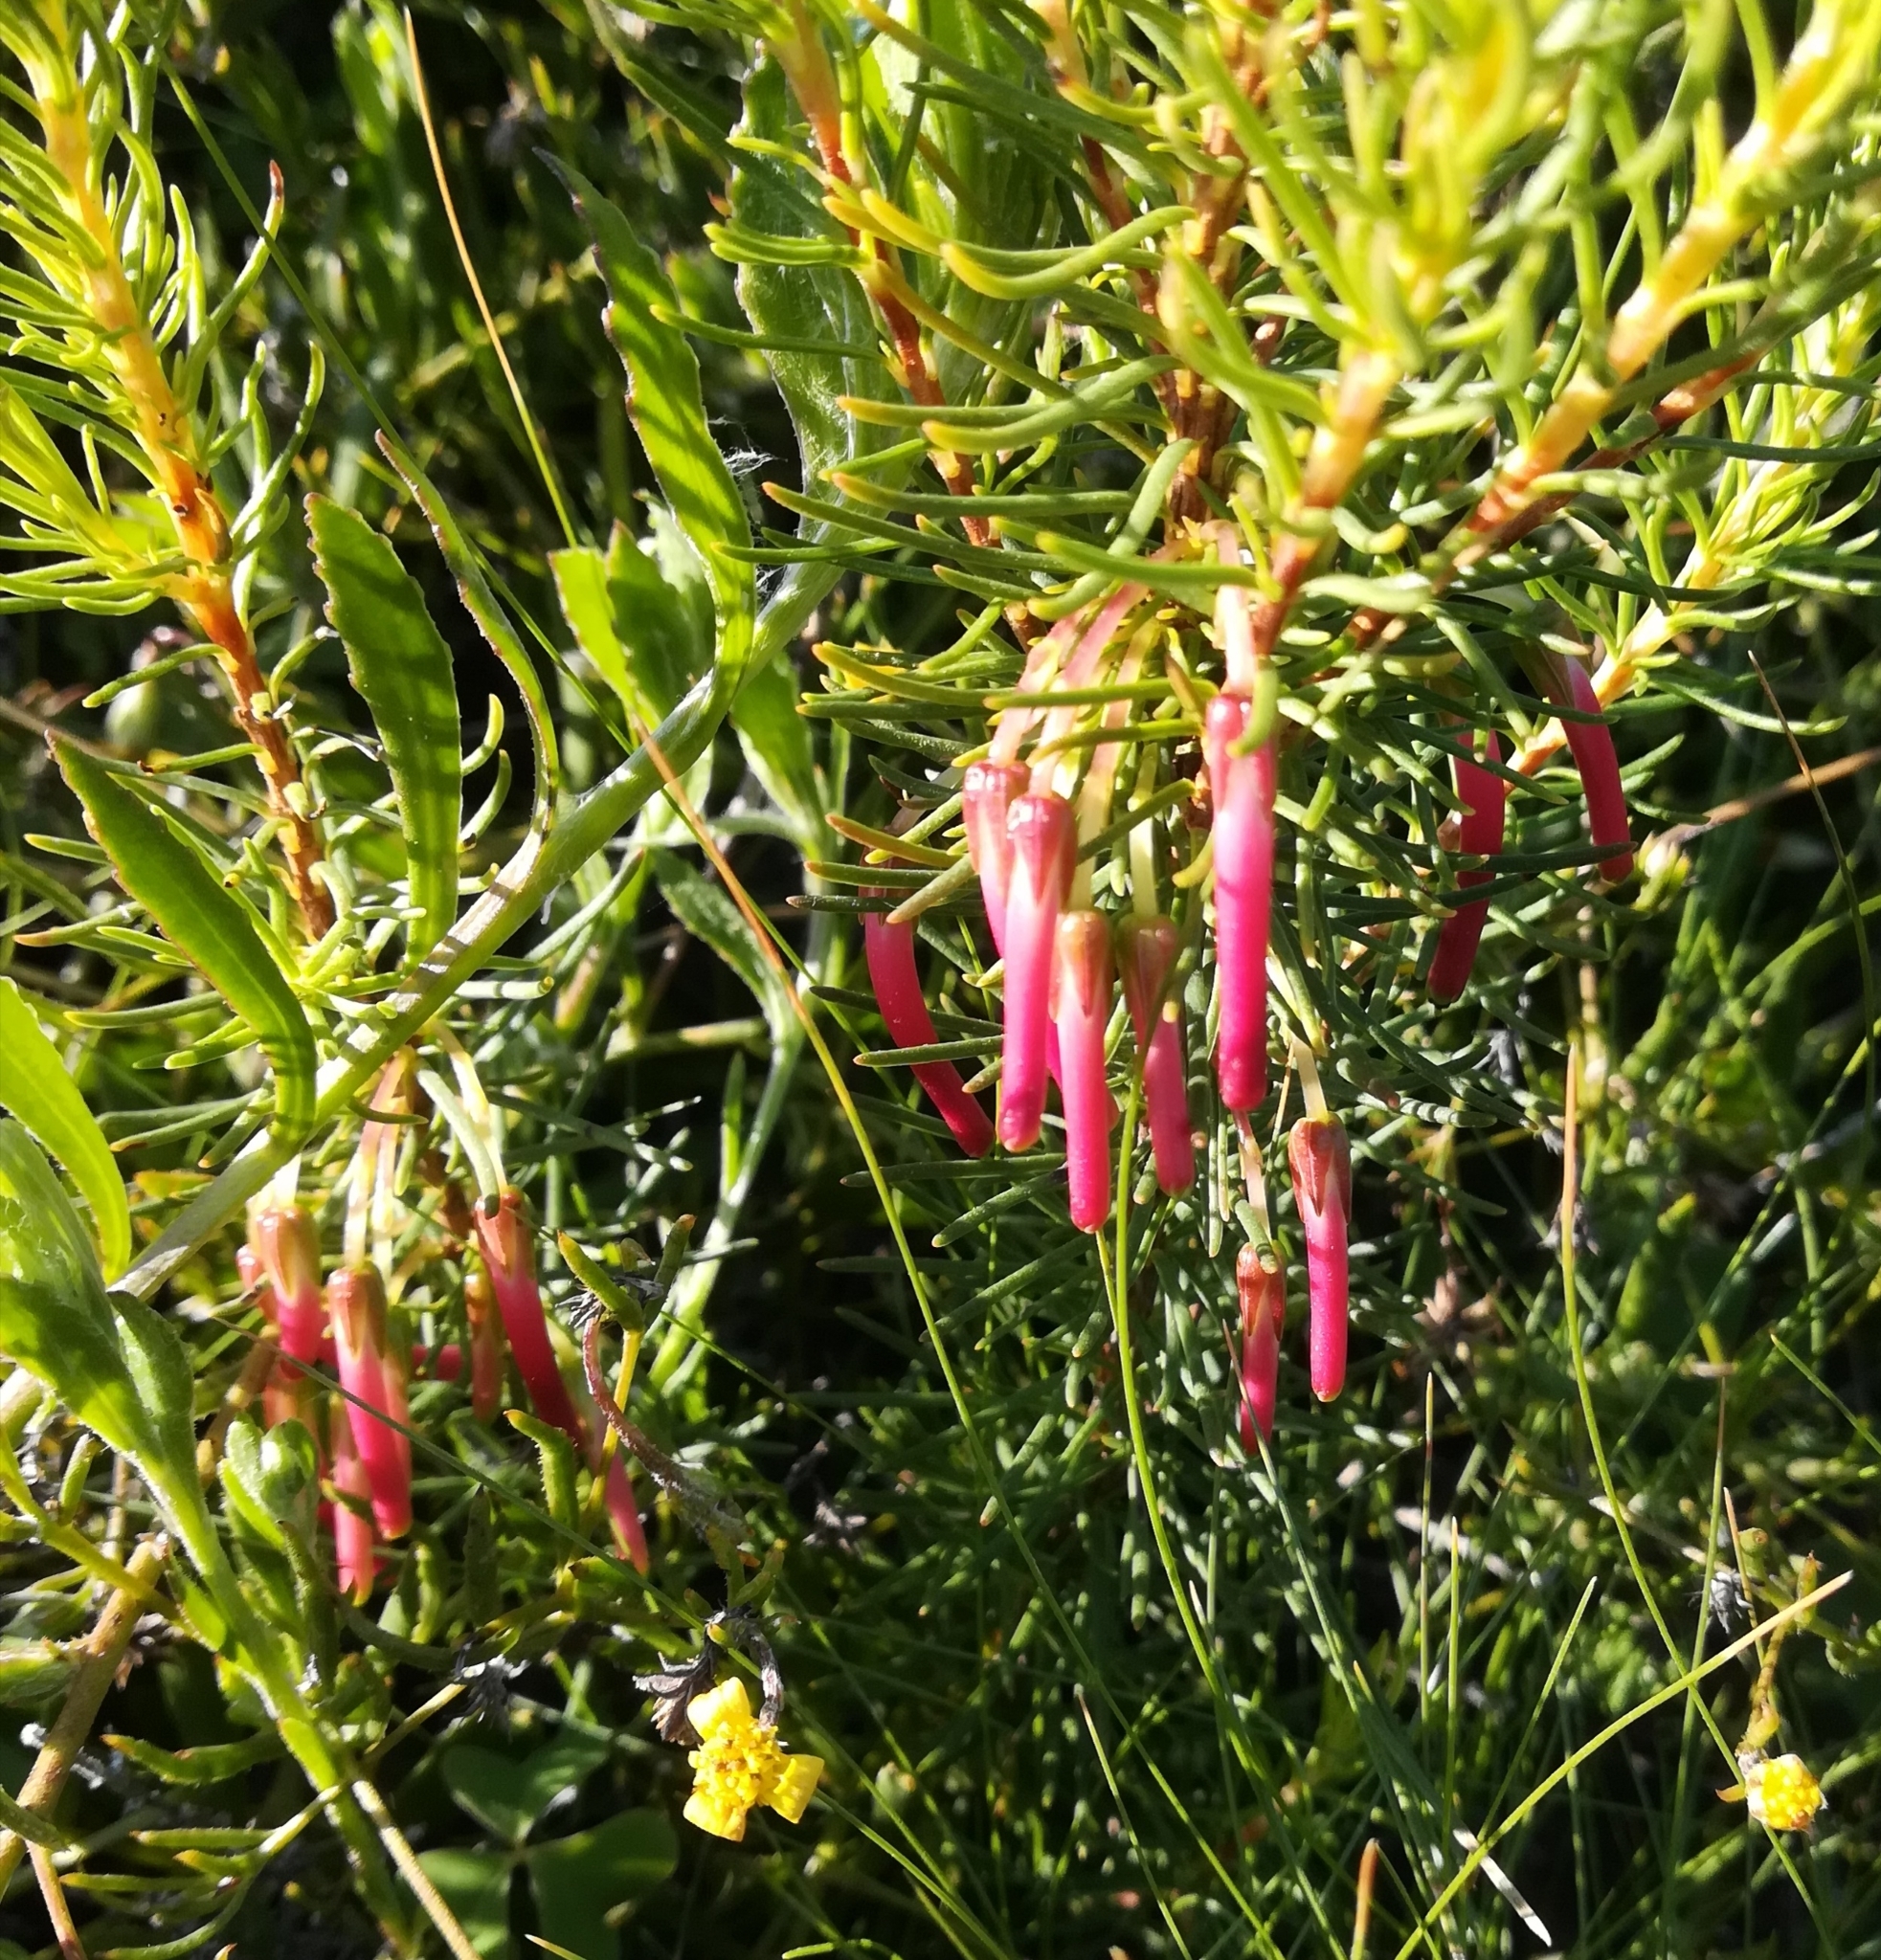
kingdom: Plantae
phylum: Tracheophyta
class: Magnoliopsida
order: Ericales
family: Ericaceae
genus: Erica
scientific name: Erica plukenetii
